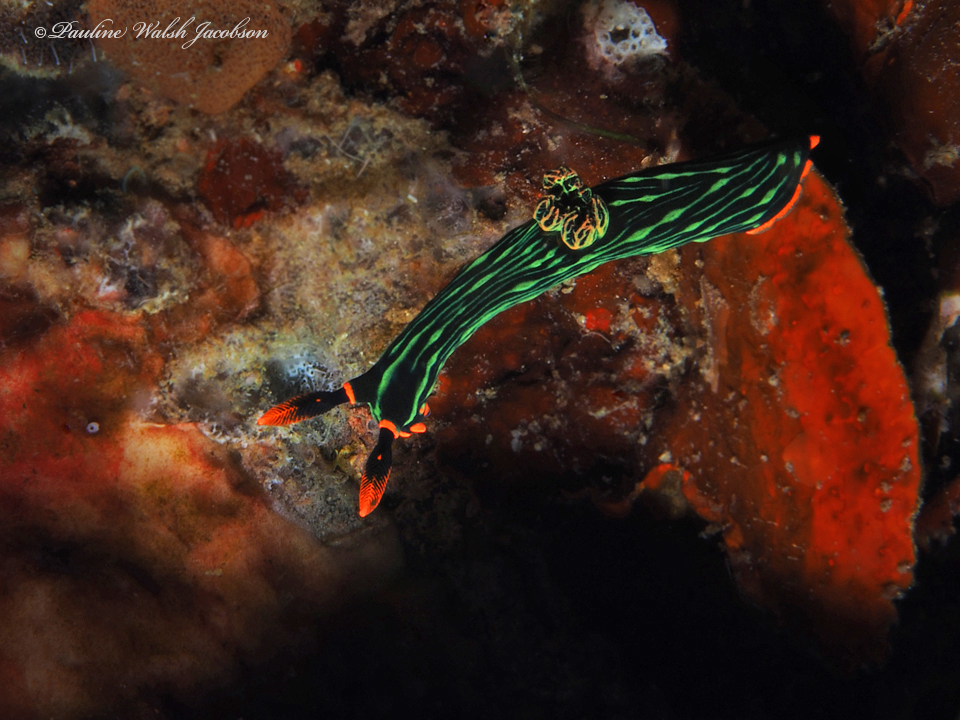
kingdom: Animalia
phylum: Mollusca
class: Gastropoda
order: Nudibranchia
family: Polyceridae
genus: Nembrotha
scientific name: Nembrotha kubaryana
